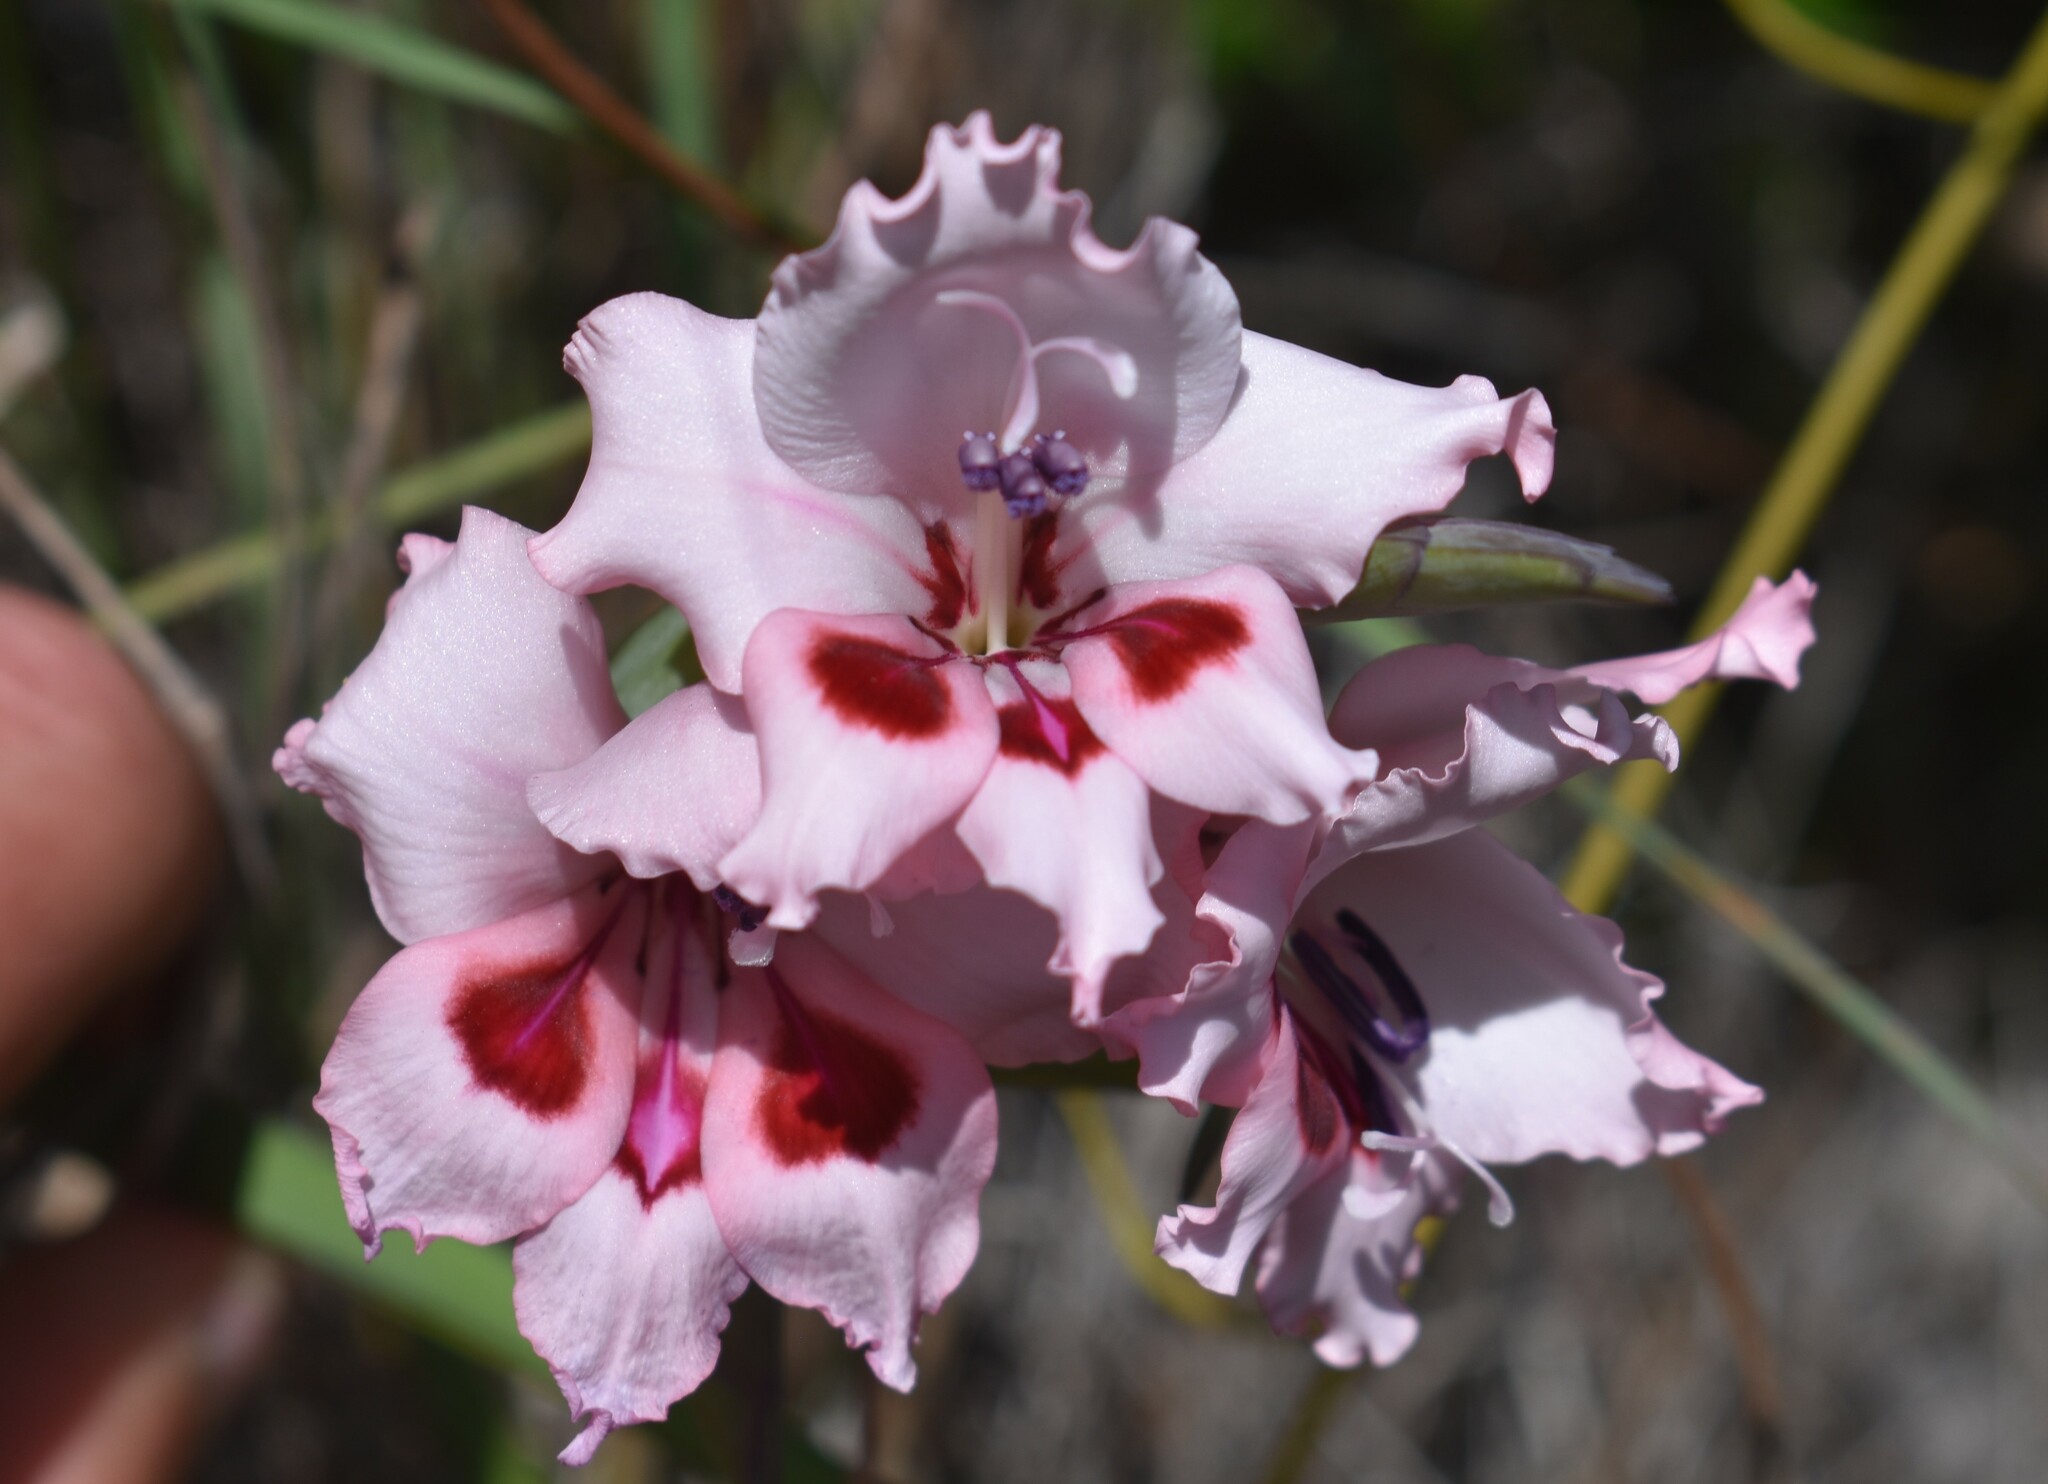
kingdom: Plantae
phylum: Tracheophyta
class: Liliopsida
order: Asparagales
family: Iridaceae
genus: Gladiolus
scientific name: Gladiolus carneus
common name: Painted-lady
